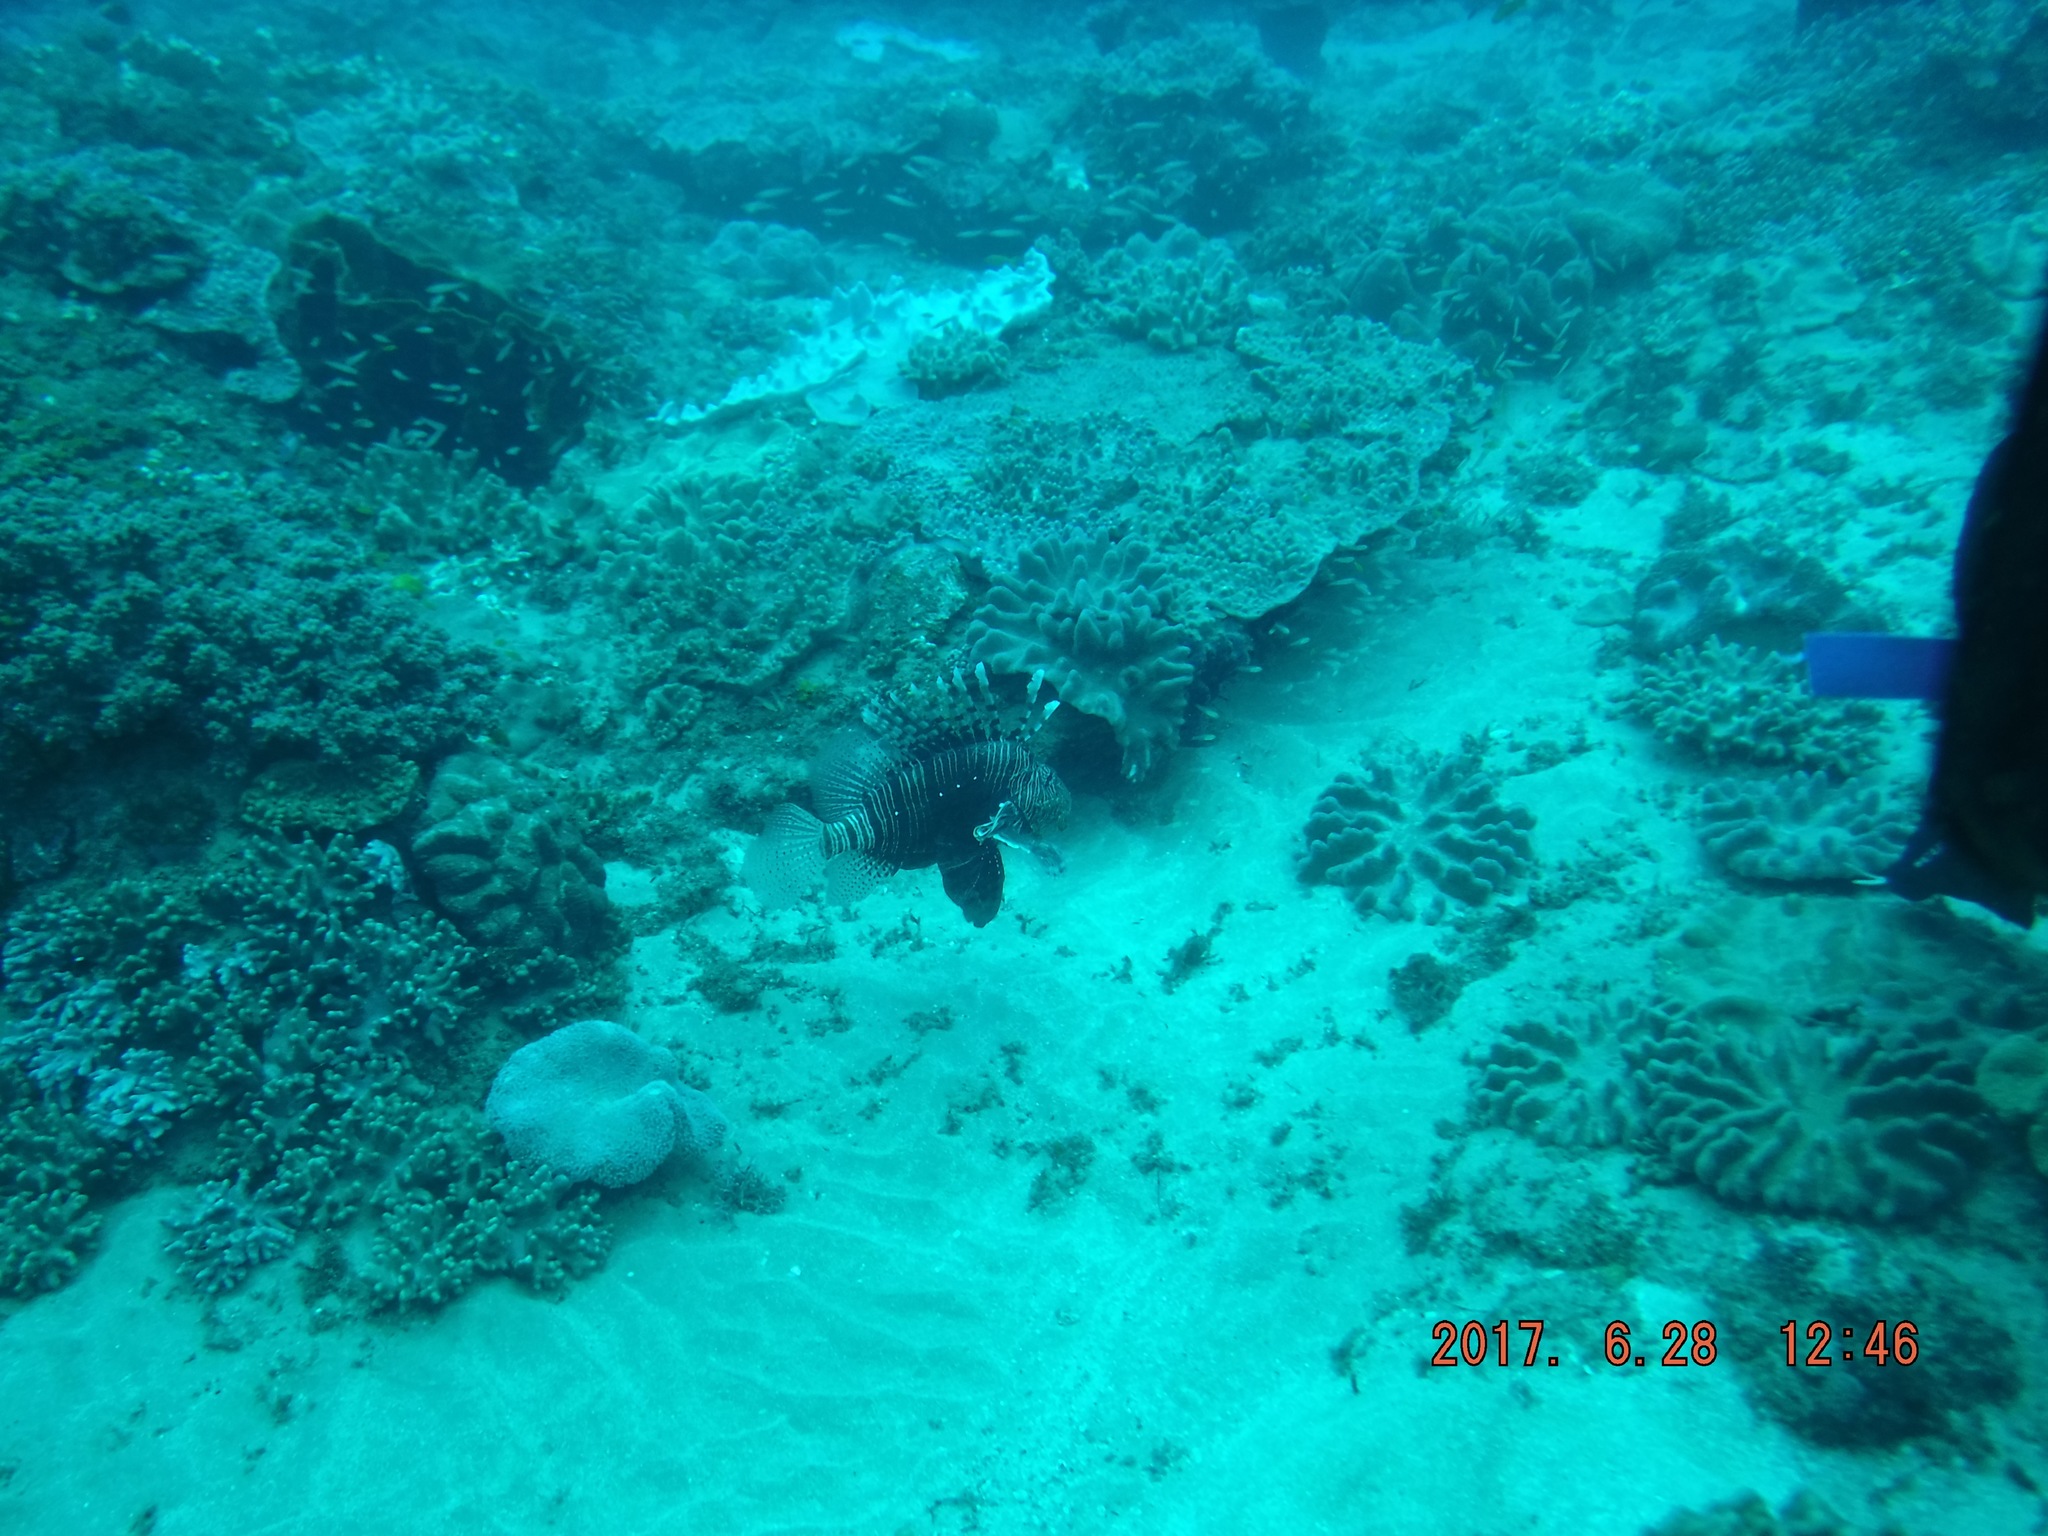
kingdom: Animalia
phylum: Chordata
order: Scorpaeniformes
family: Scorpaenidae
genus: Pterois
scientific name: Pterois miles
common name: Devil firefish
